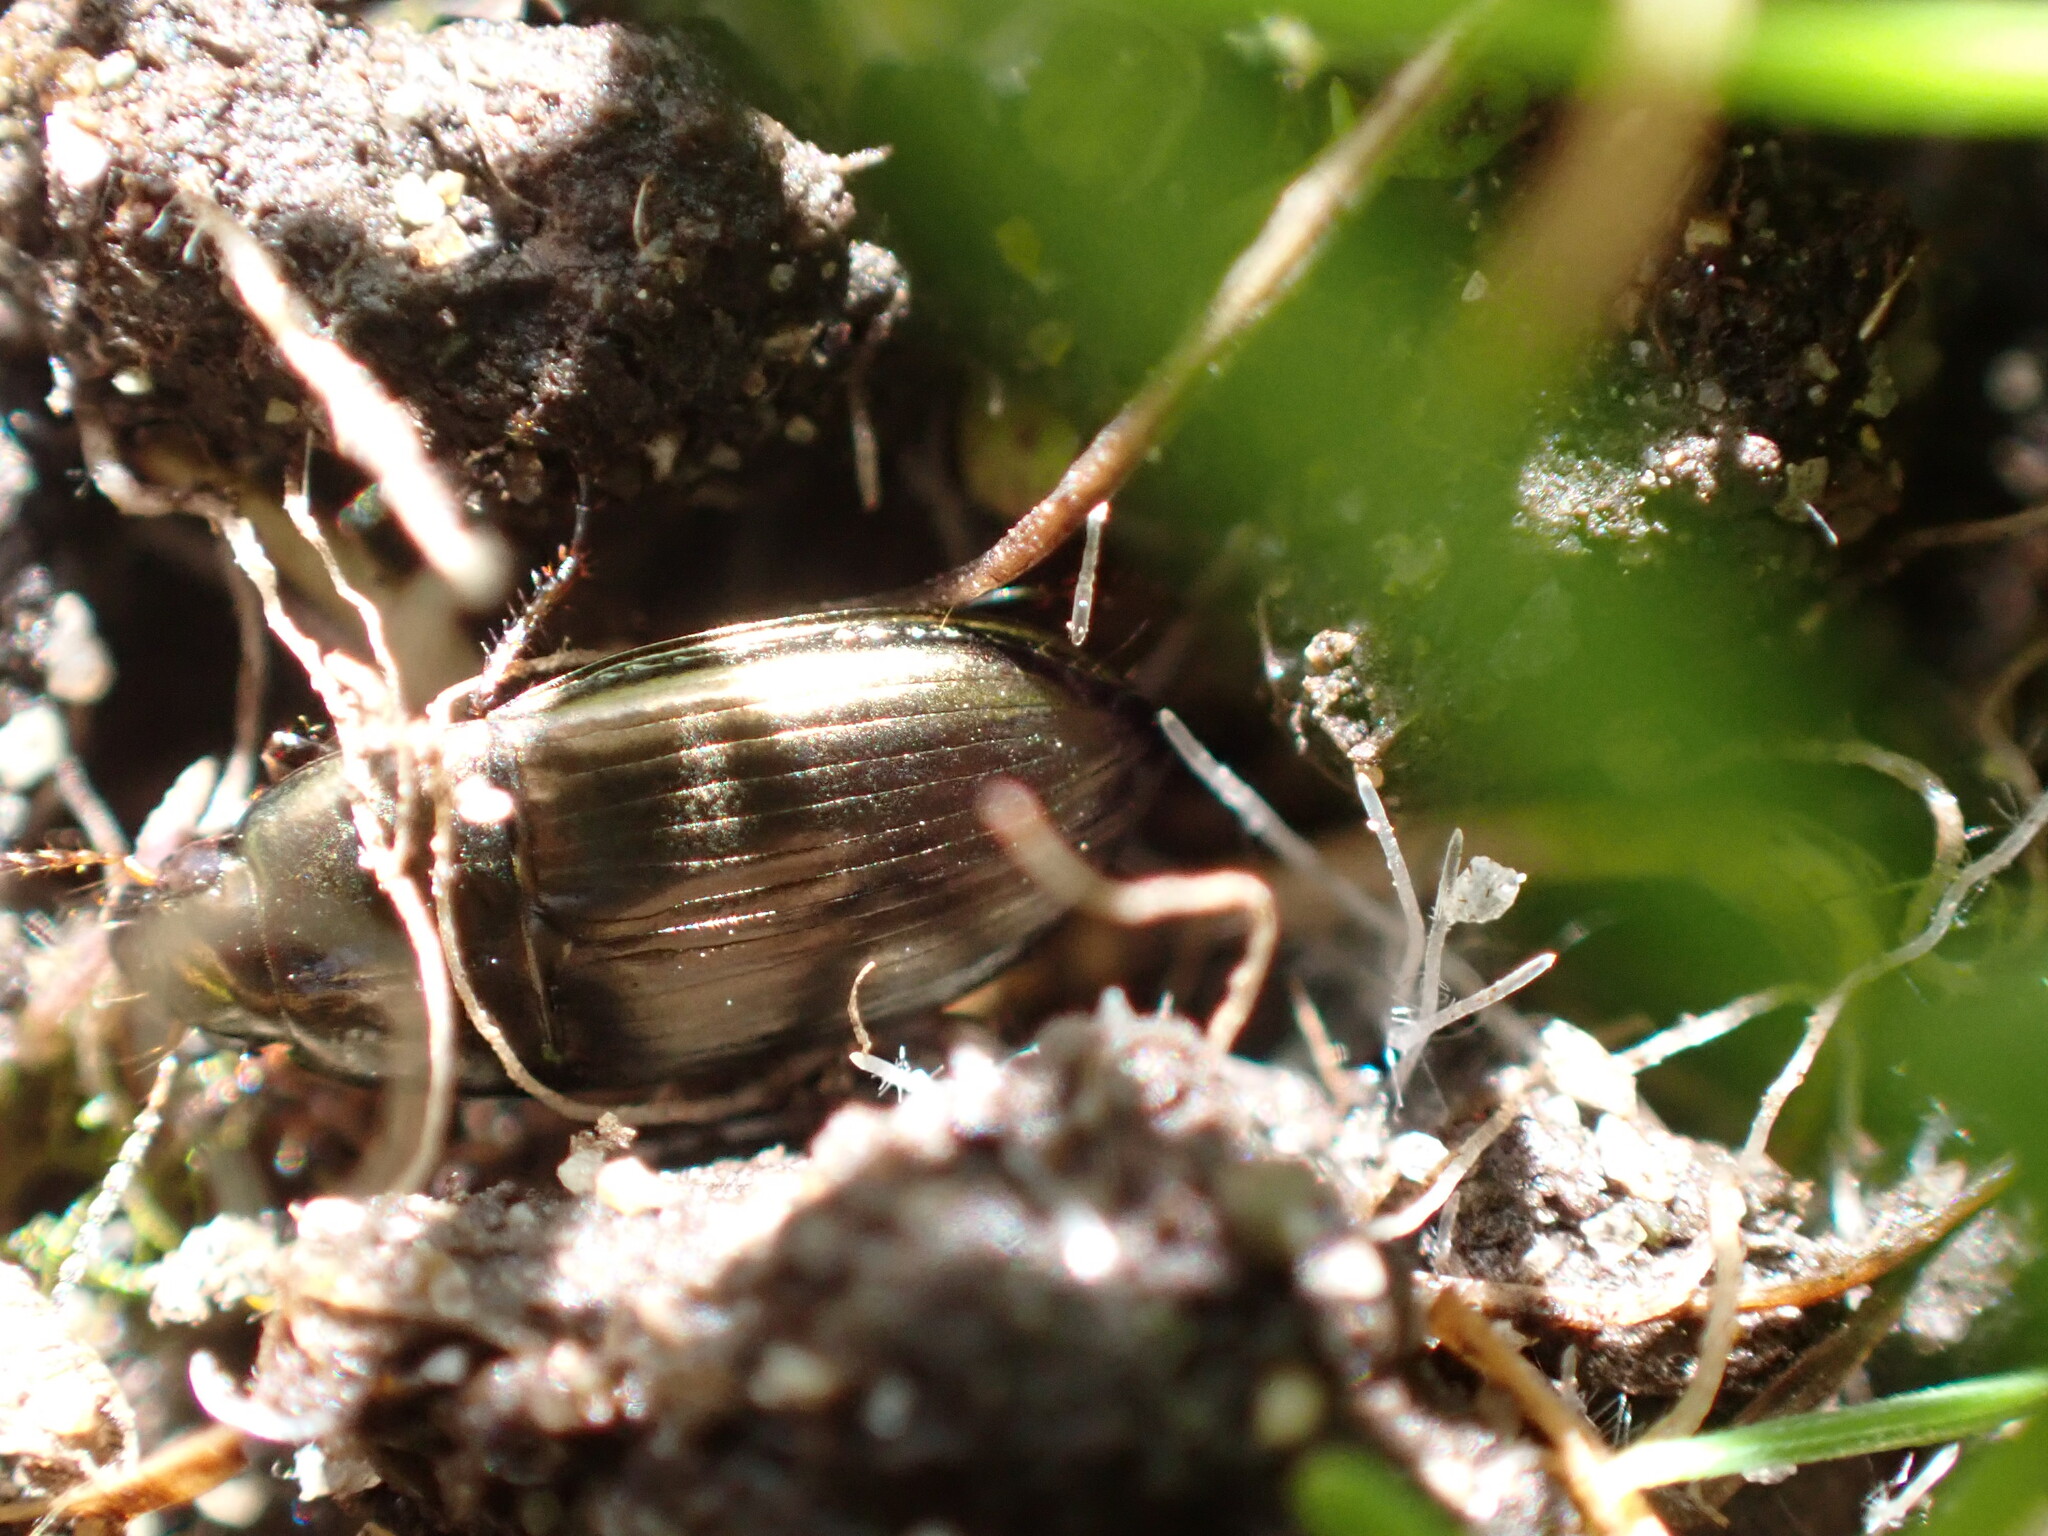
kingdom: Animalia
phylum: Arthropoda
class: Insecta
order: Coleoptera
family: Carabidae
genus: Amara
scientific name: Amara aenea
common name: Common sun beetle
